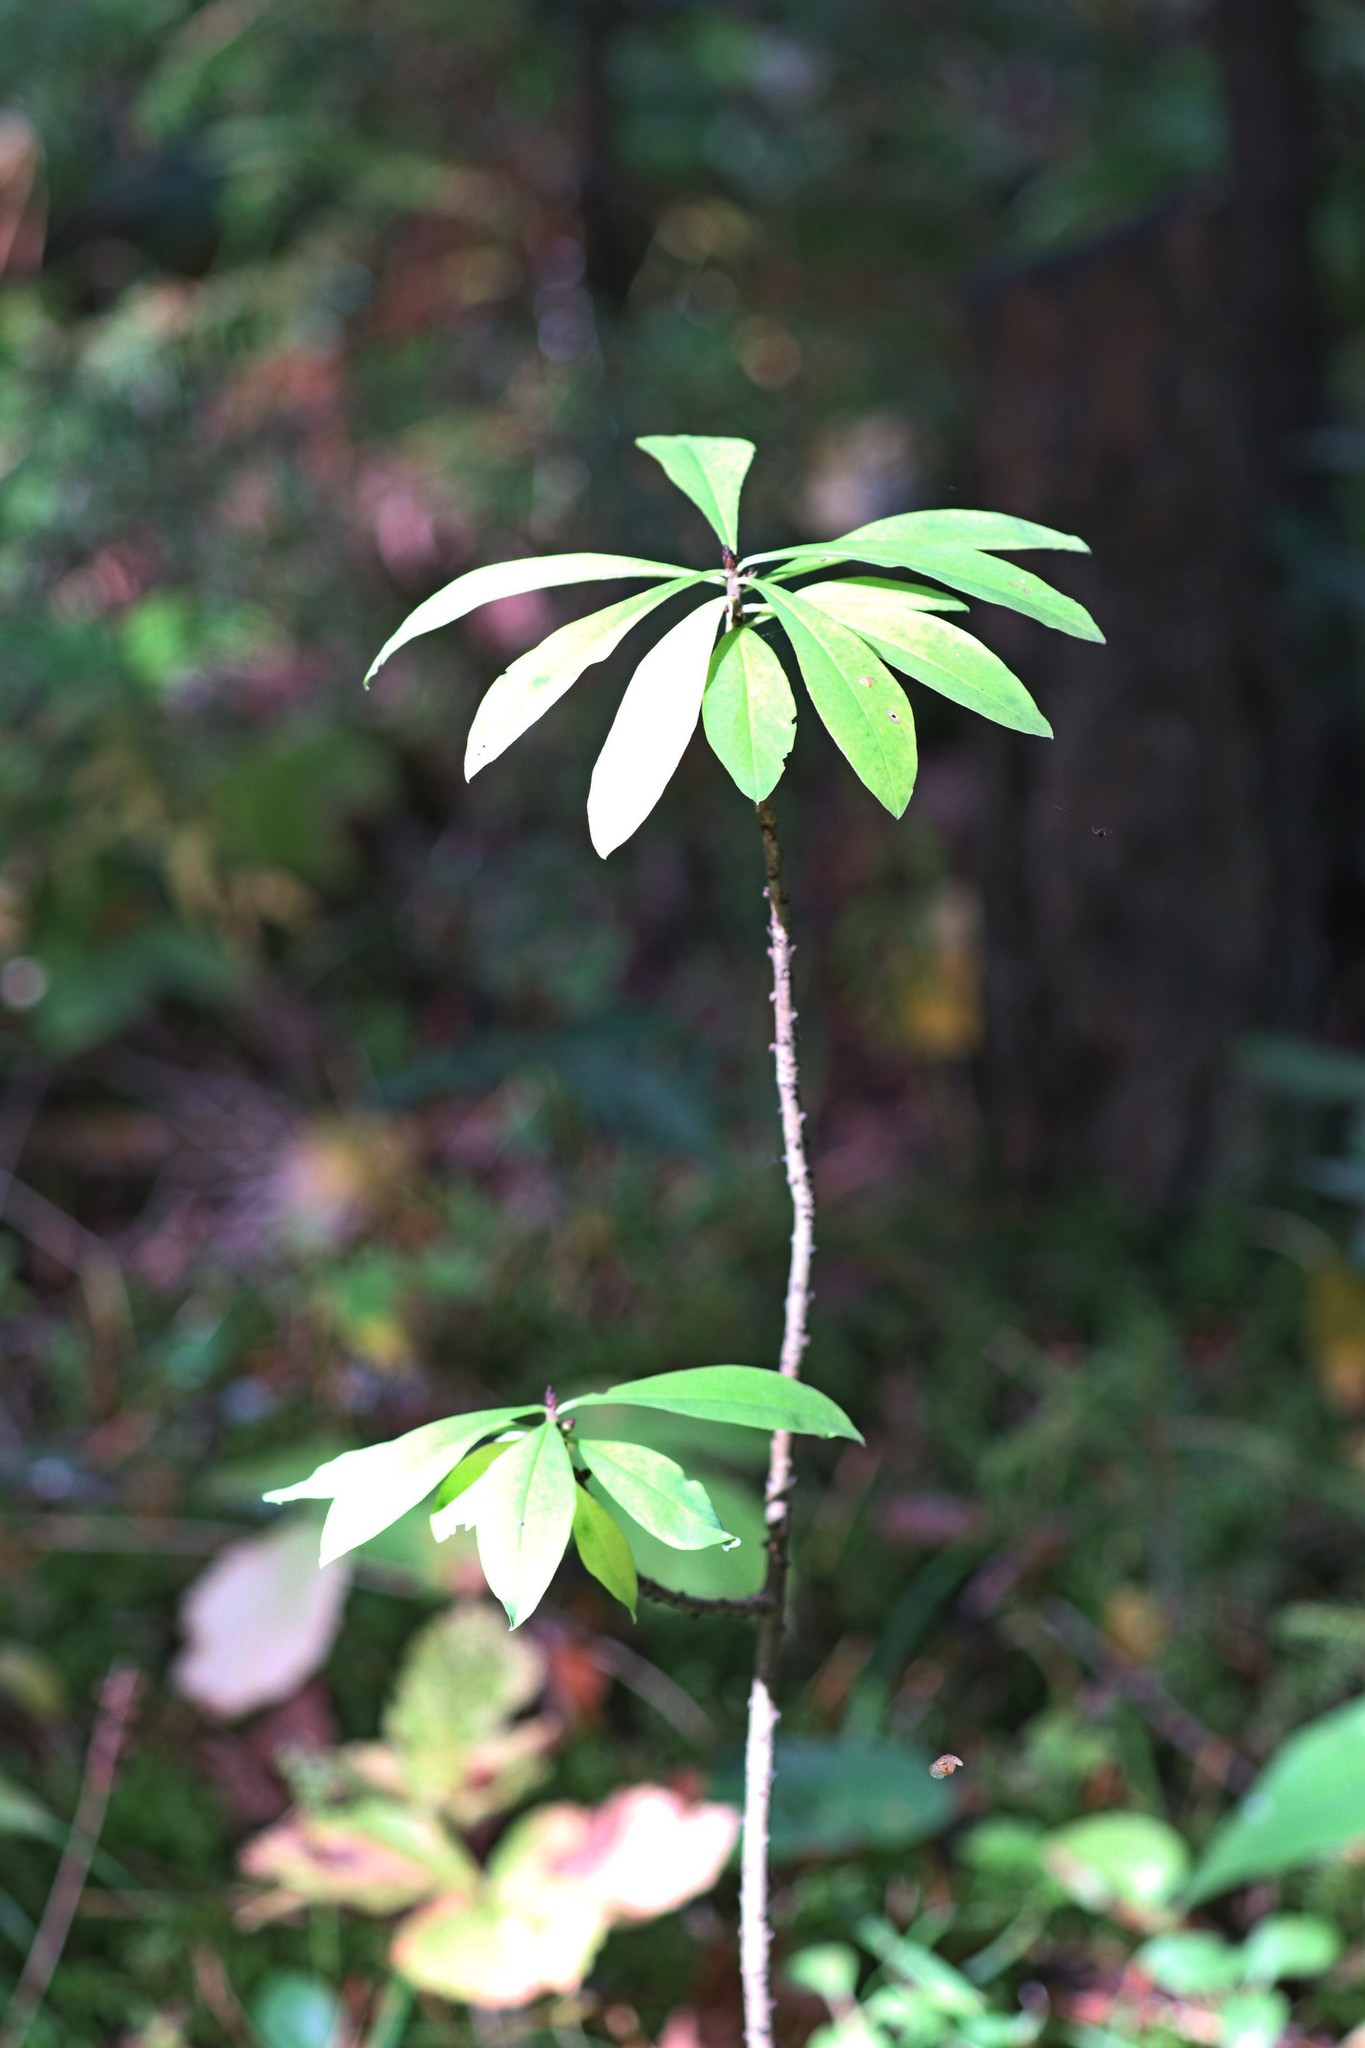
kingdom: Plantae
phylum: Tracheophyta
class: Magnoliopsida
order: Malvales
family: Thymelaeaceae
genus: Daphne
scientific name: Daphne mezereum
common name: Mezereon
